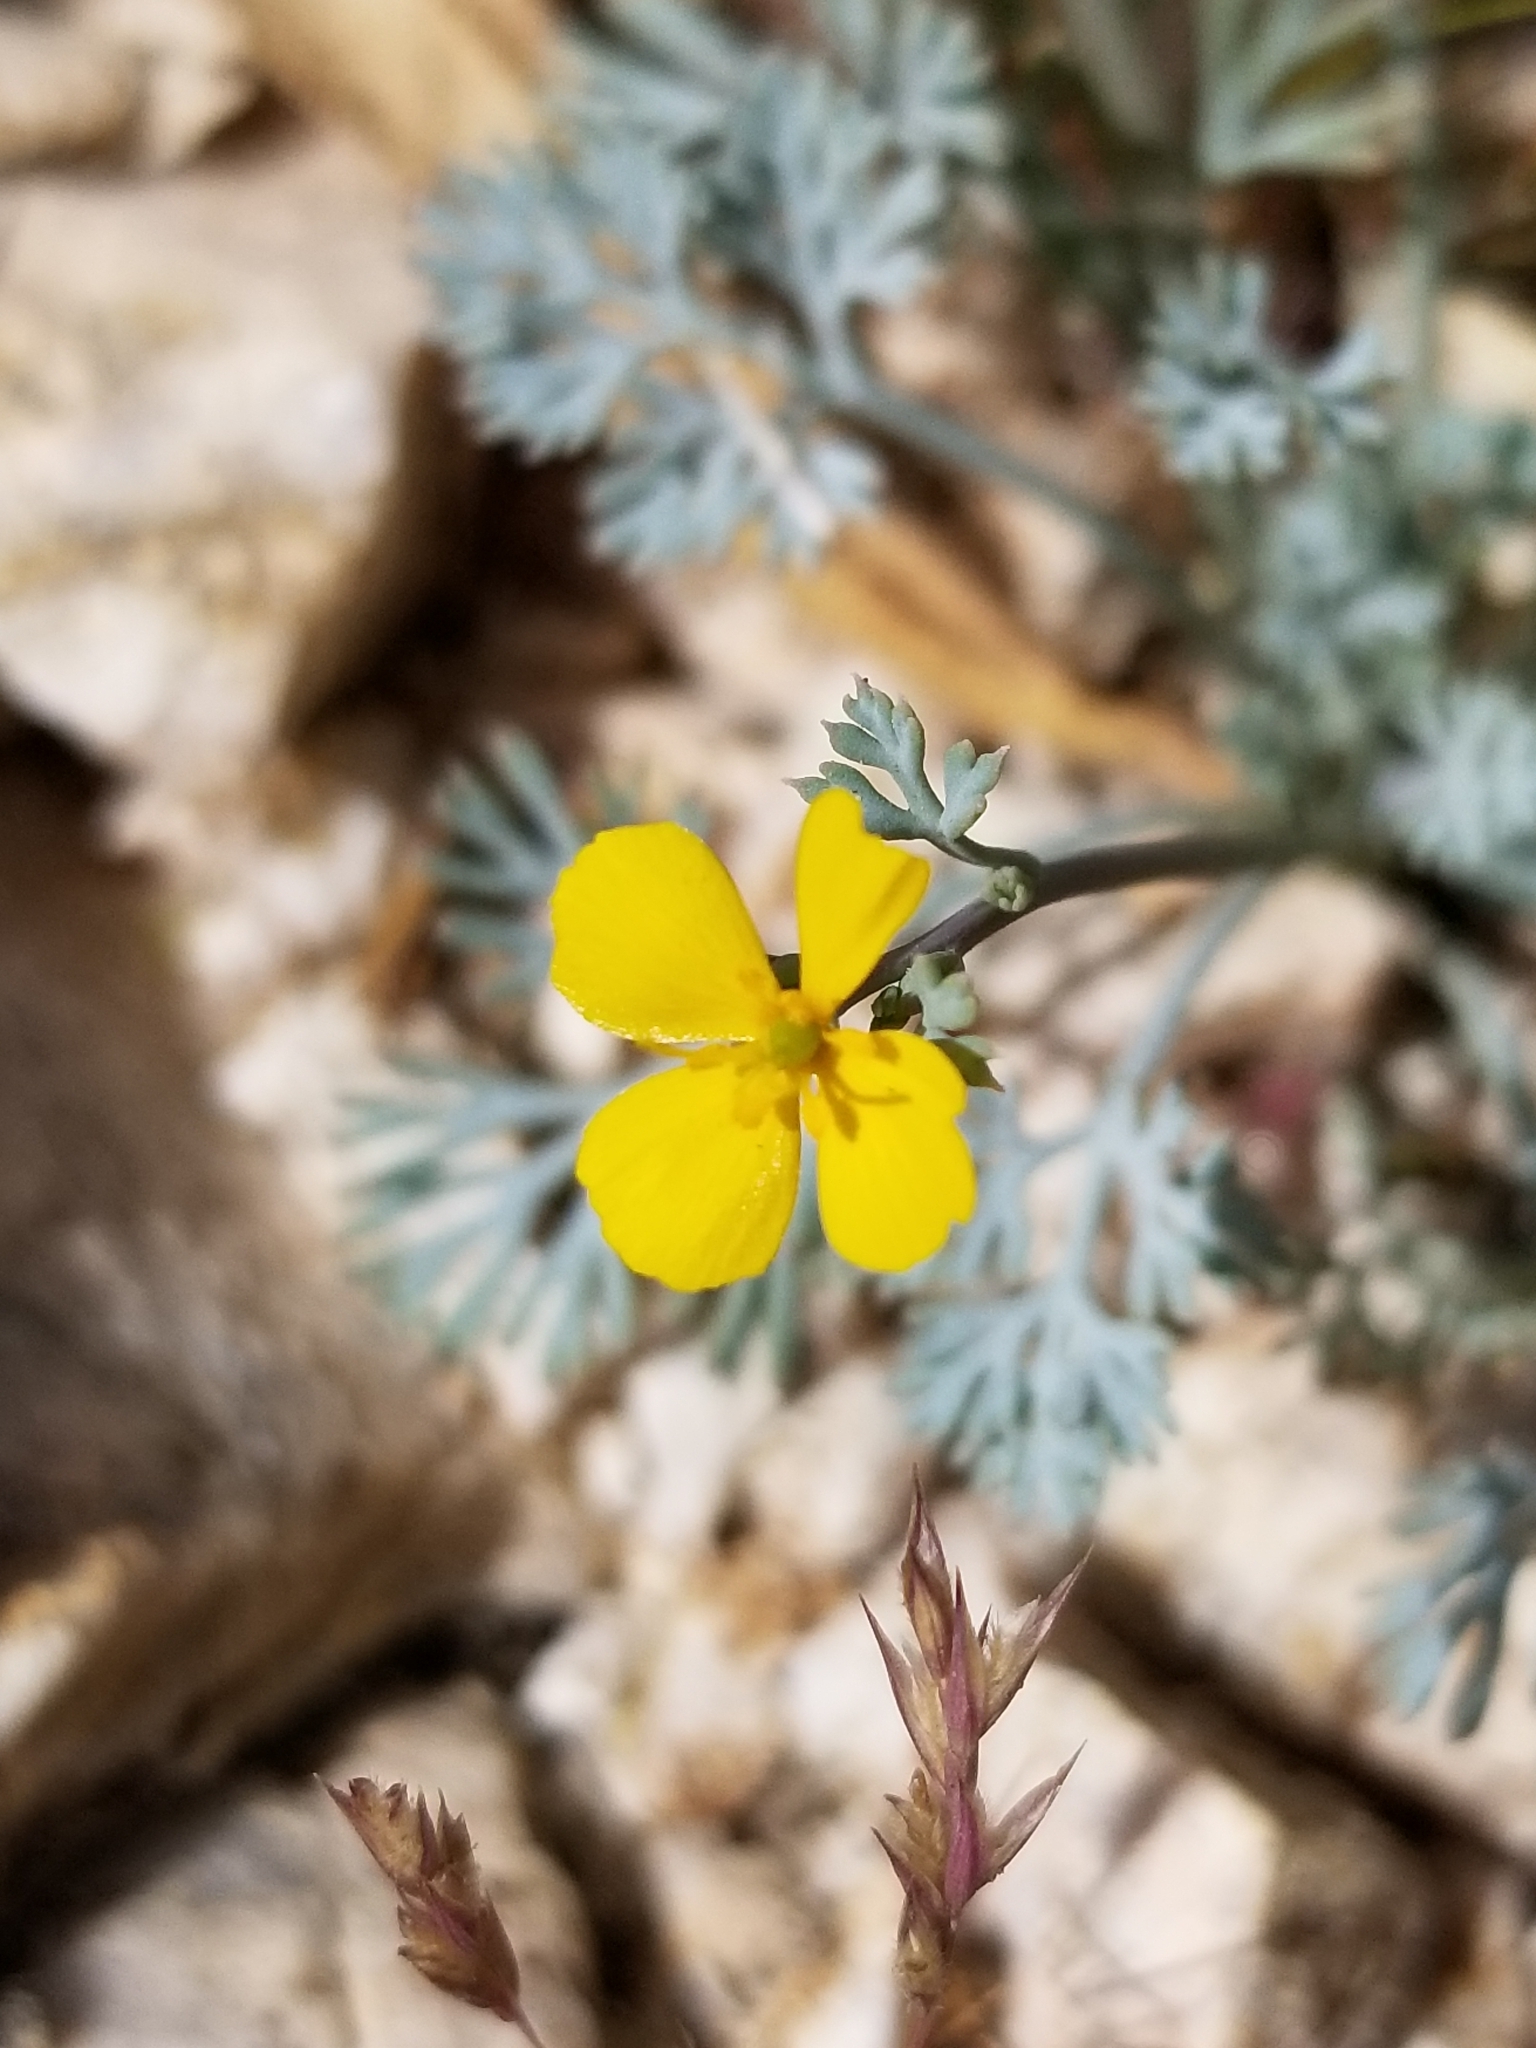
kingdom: Plantae
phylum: Tracheophyta
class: Magnoliopsida
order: Ranunculales
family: Papaveraceae
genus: Eschscholzia
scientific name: Eschscholzia minutiflora
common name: Small-flower california-poppy
